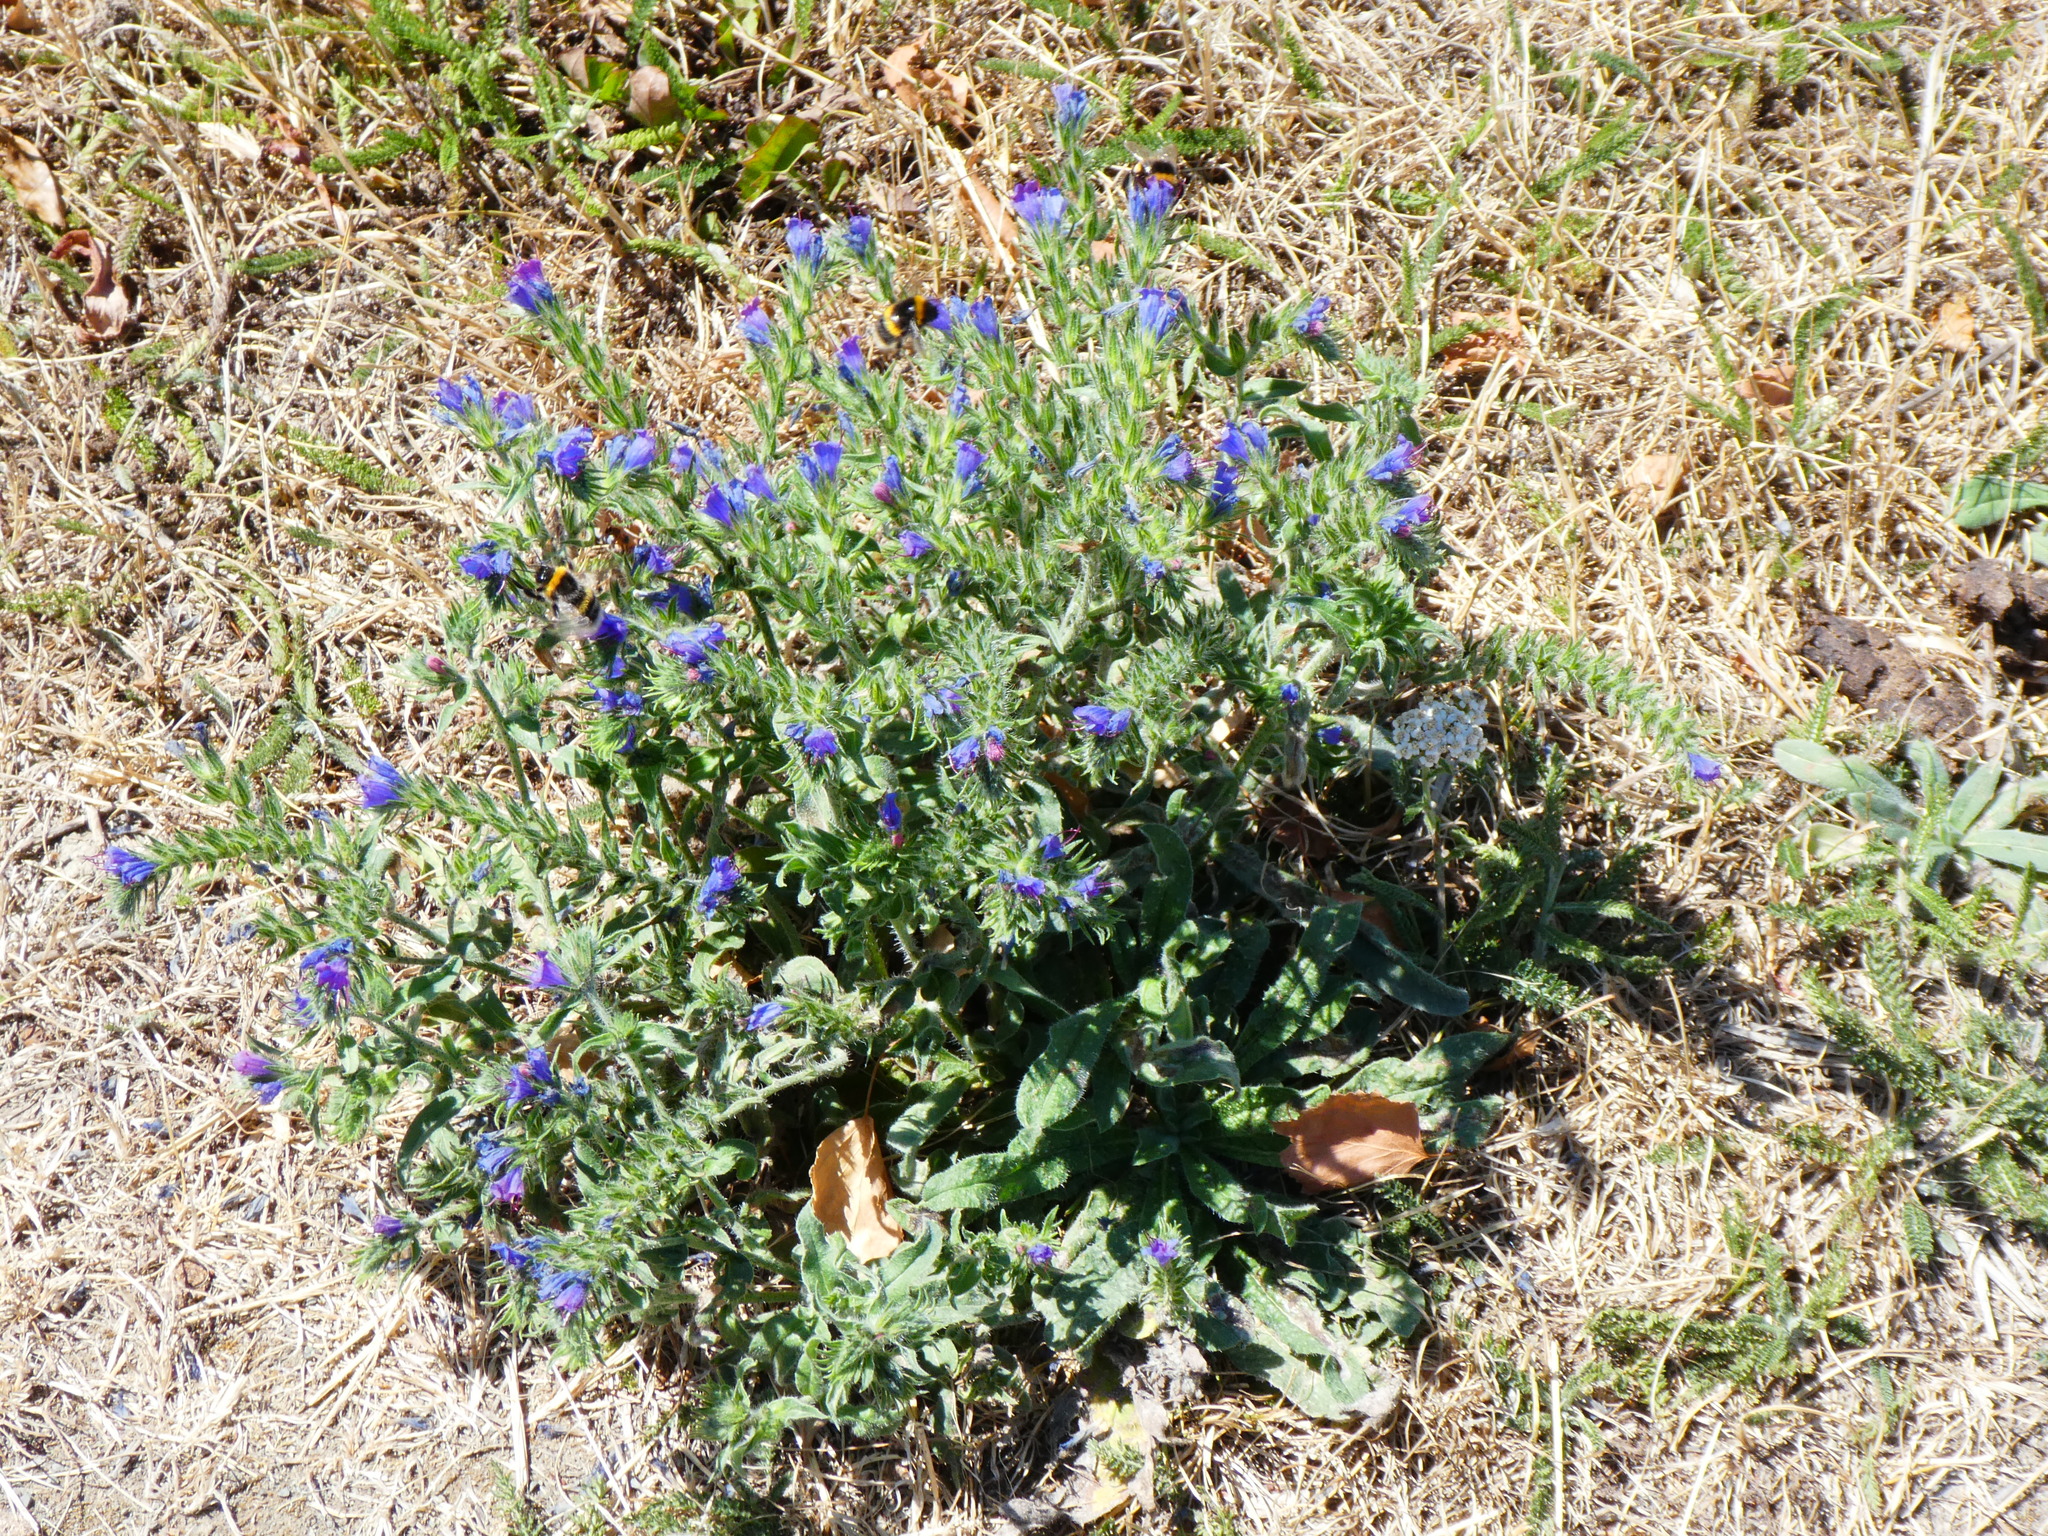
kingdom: Plantae
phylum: Tracheophyta
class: Magnoliopsida
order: Boraginales
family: Boraginaceae
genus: Echium
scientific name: Echium vulgare
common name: Common viper's bugloss
